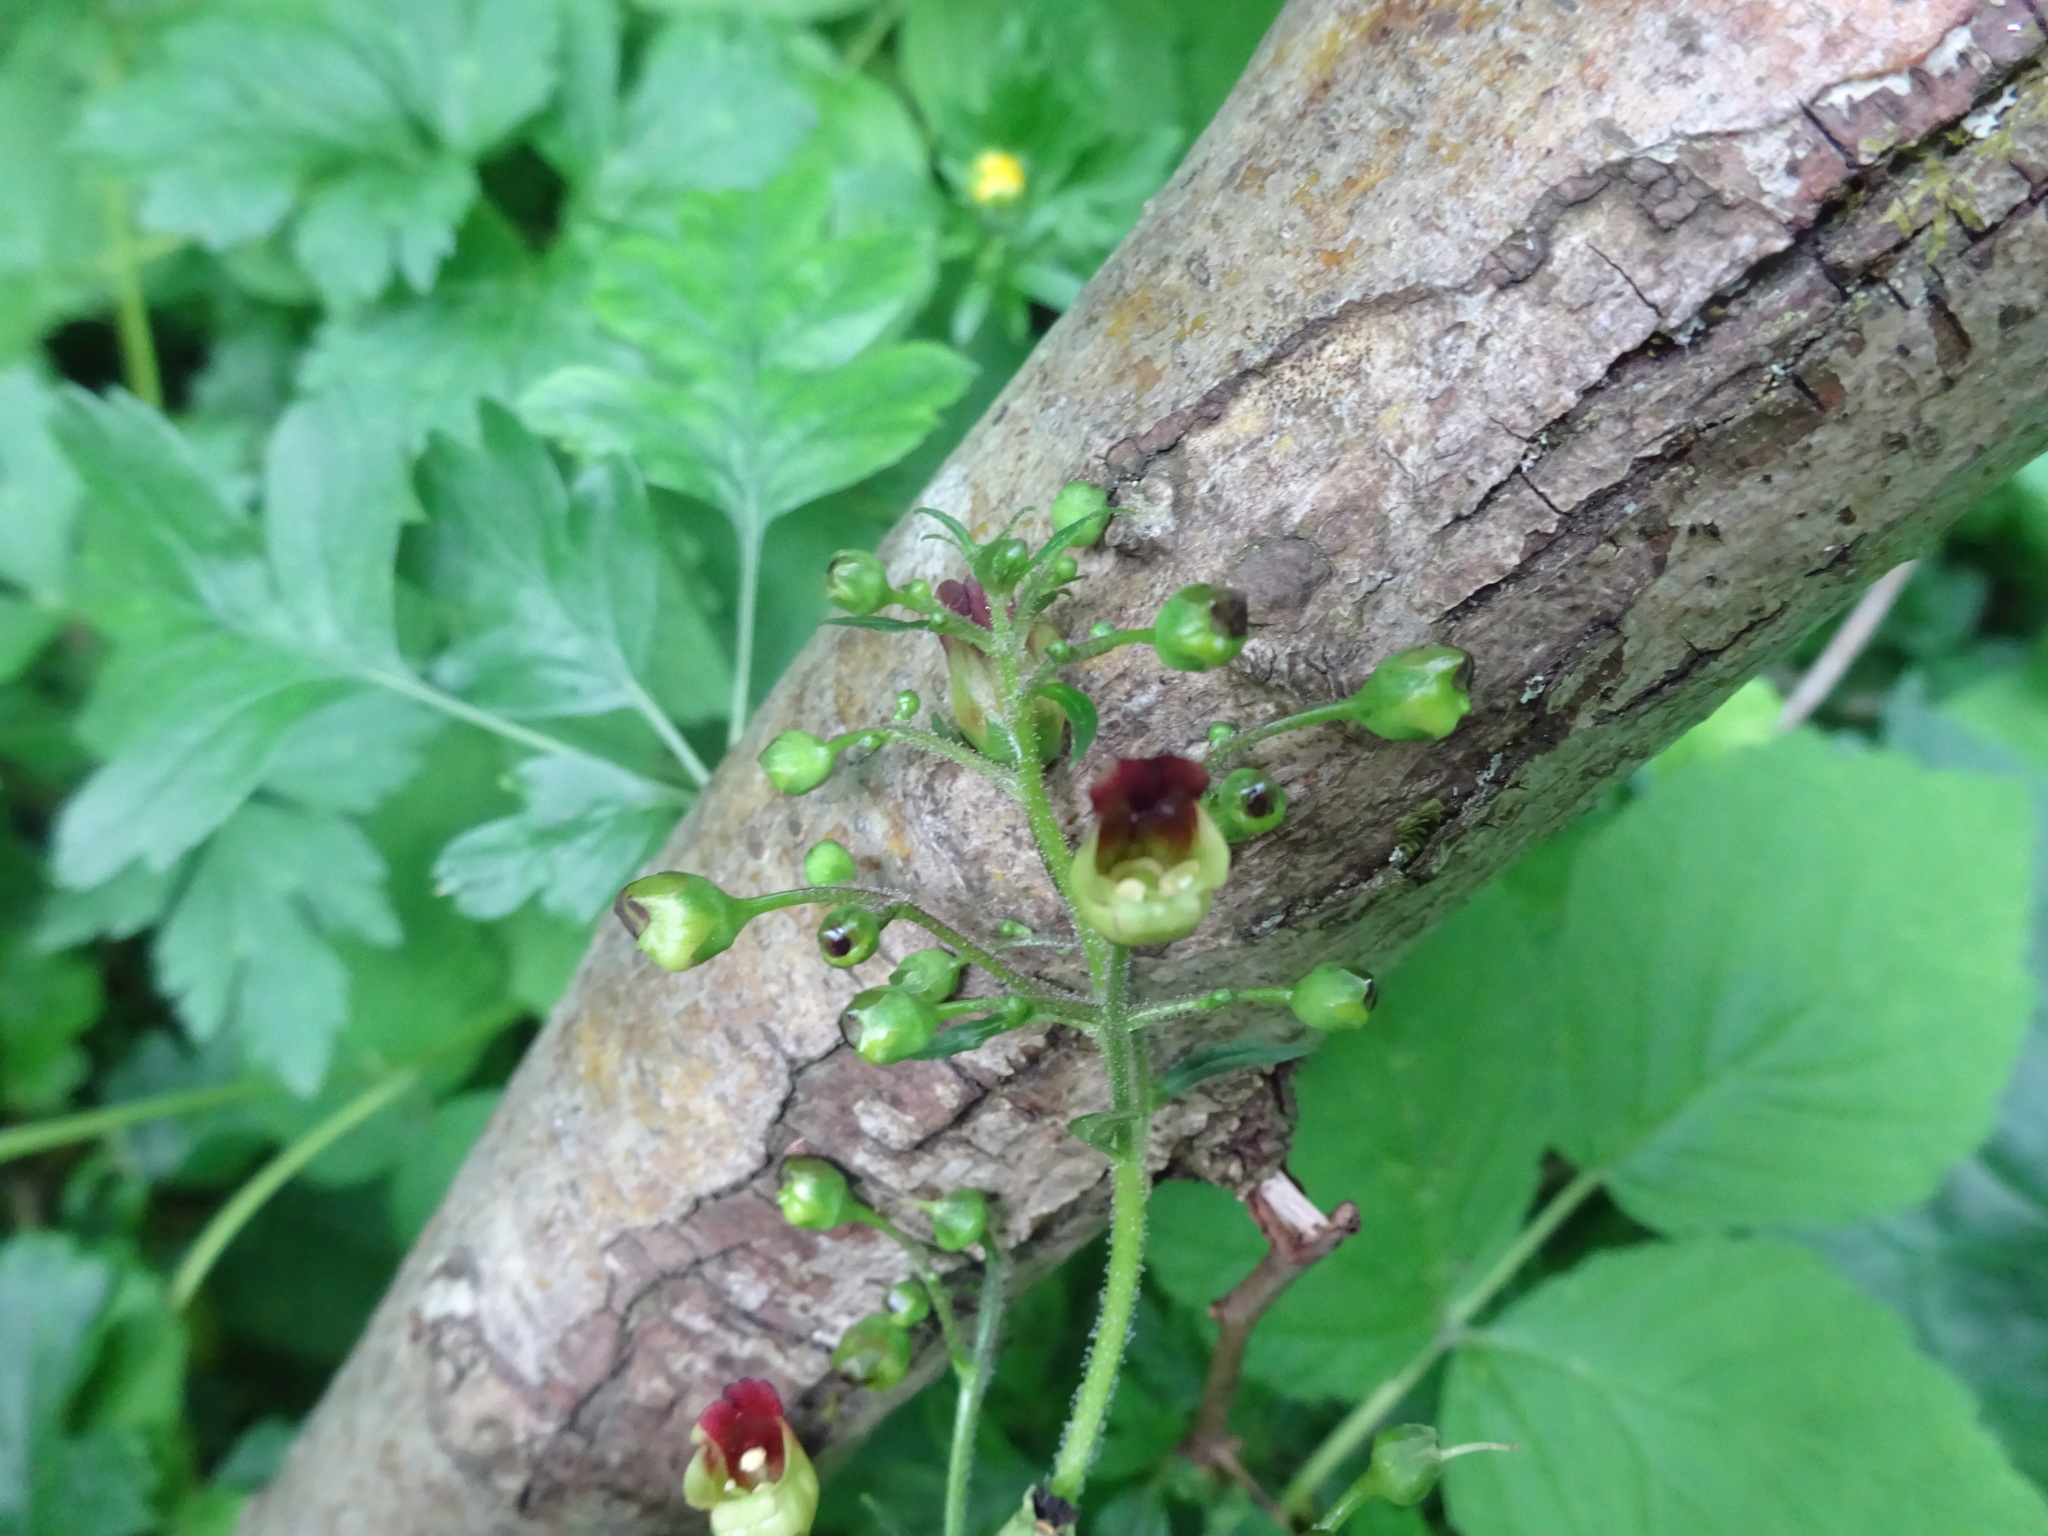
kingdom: Plantae
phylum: Tracheophyta
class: Magnoliopsida
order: Lamiales
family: Scrophulariaceae
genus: Scrophularia
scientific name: Scrophularia nodosa
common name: Common figwort
